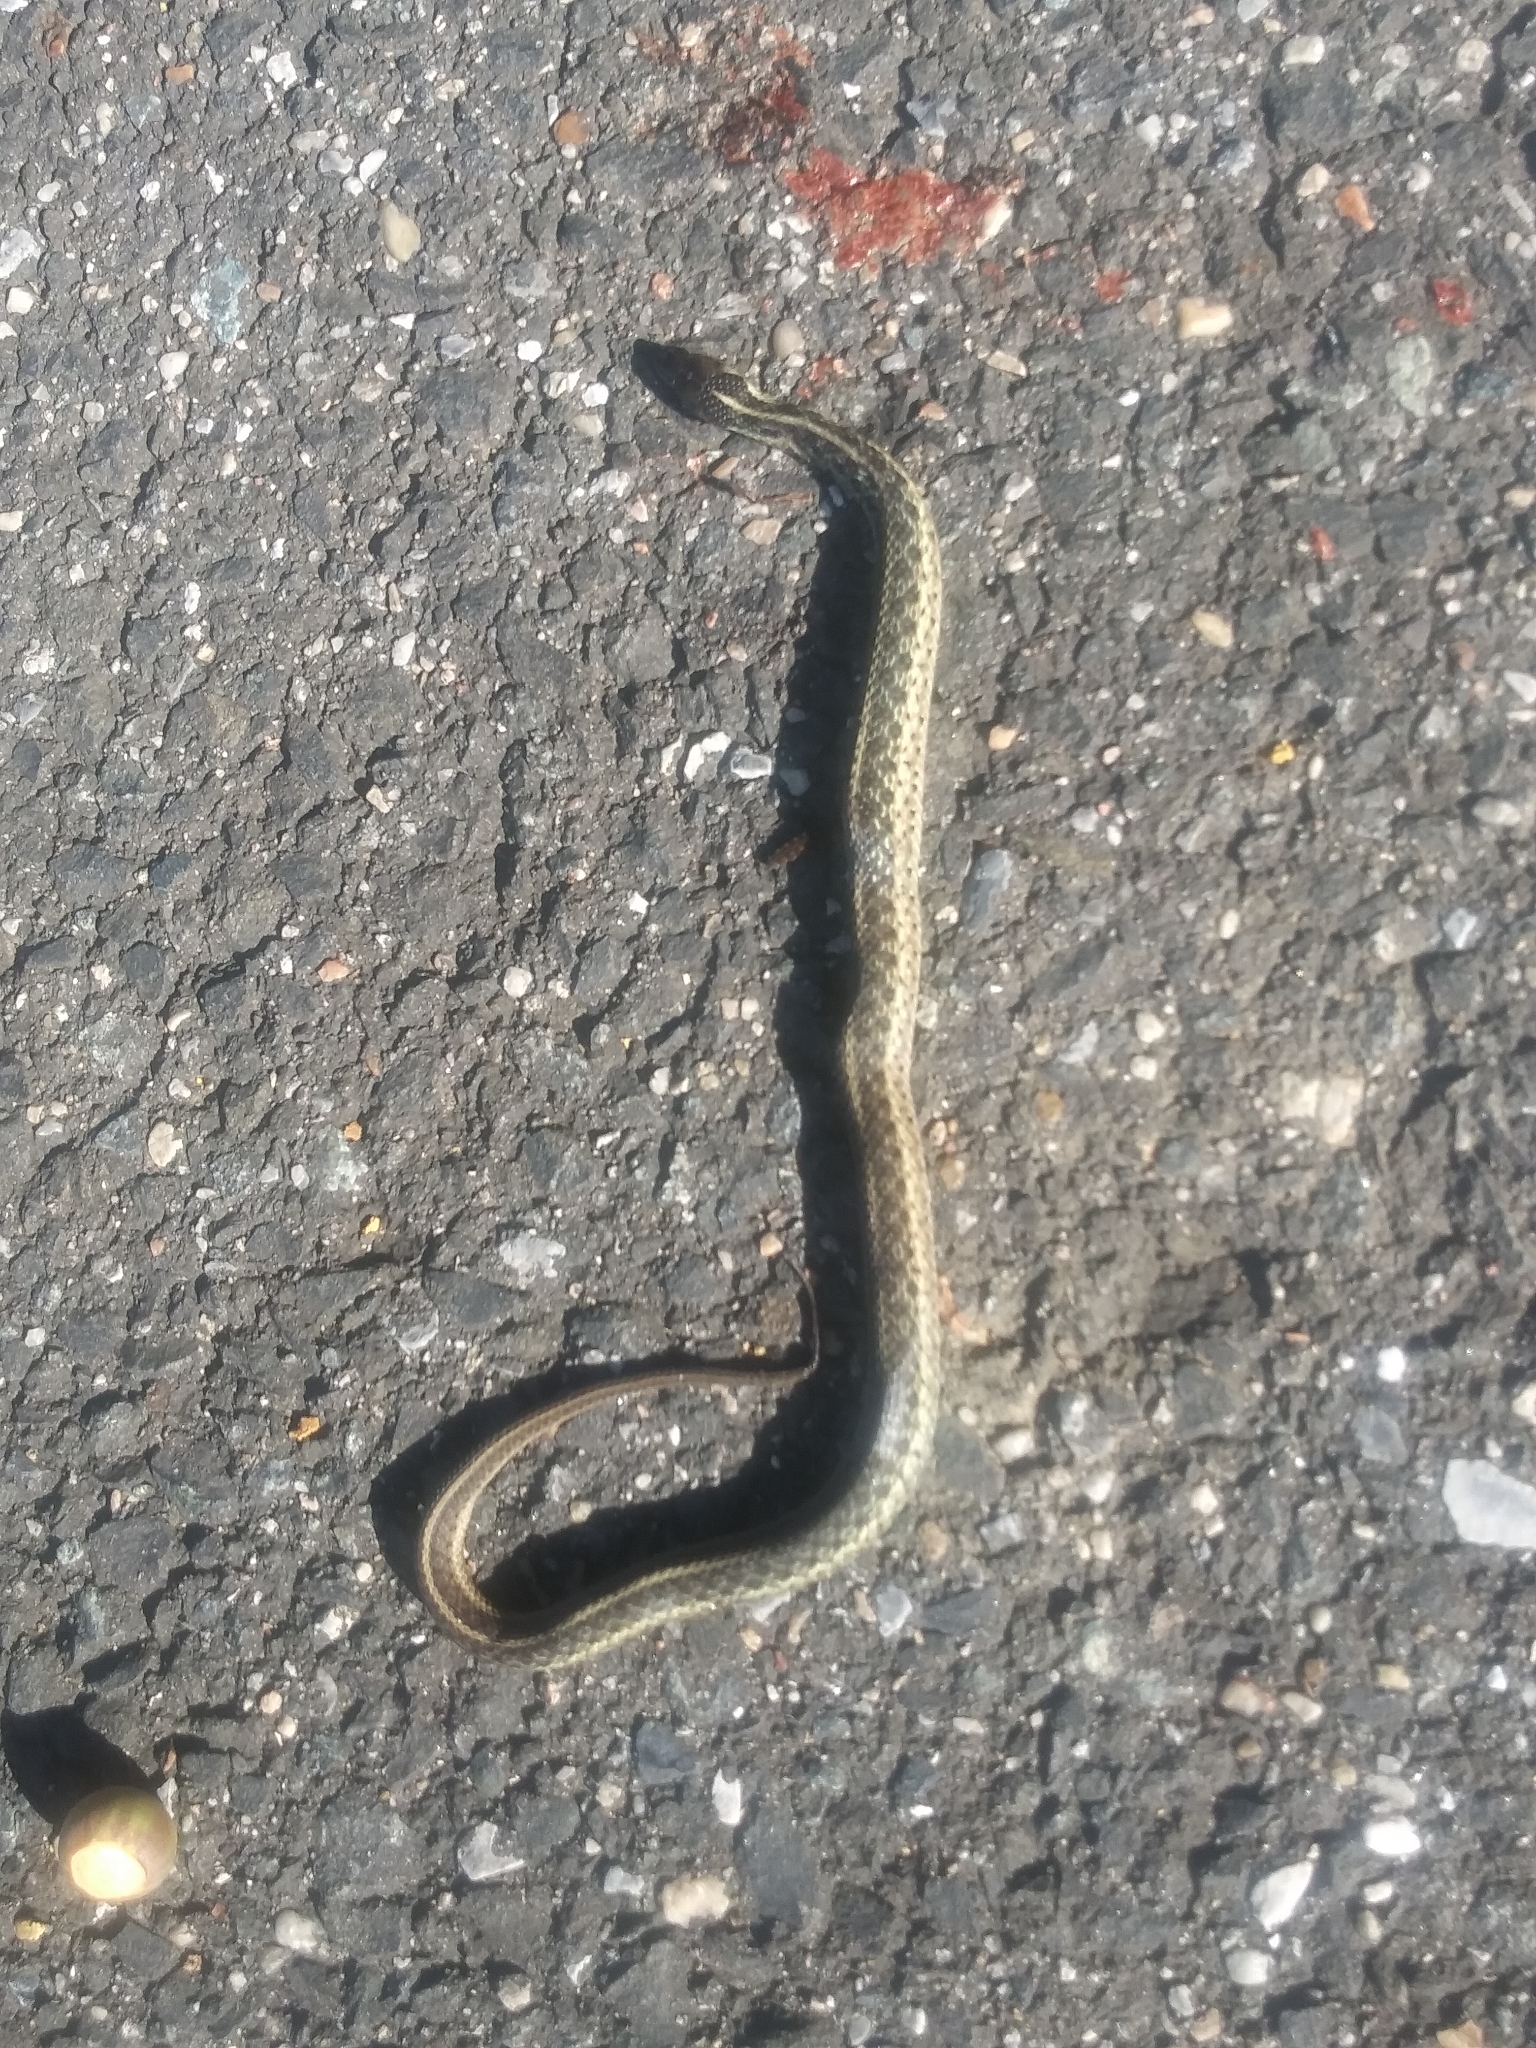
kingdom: Animalia
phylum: Chordata
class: Squamata
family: Colubridae
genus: Thamnophis
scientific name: Thamnophis sirtalis
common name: Common garter snake
